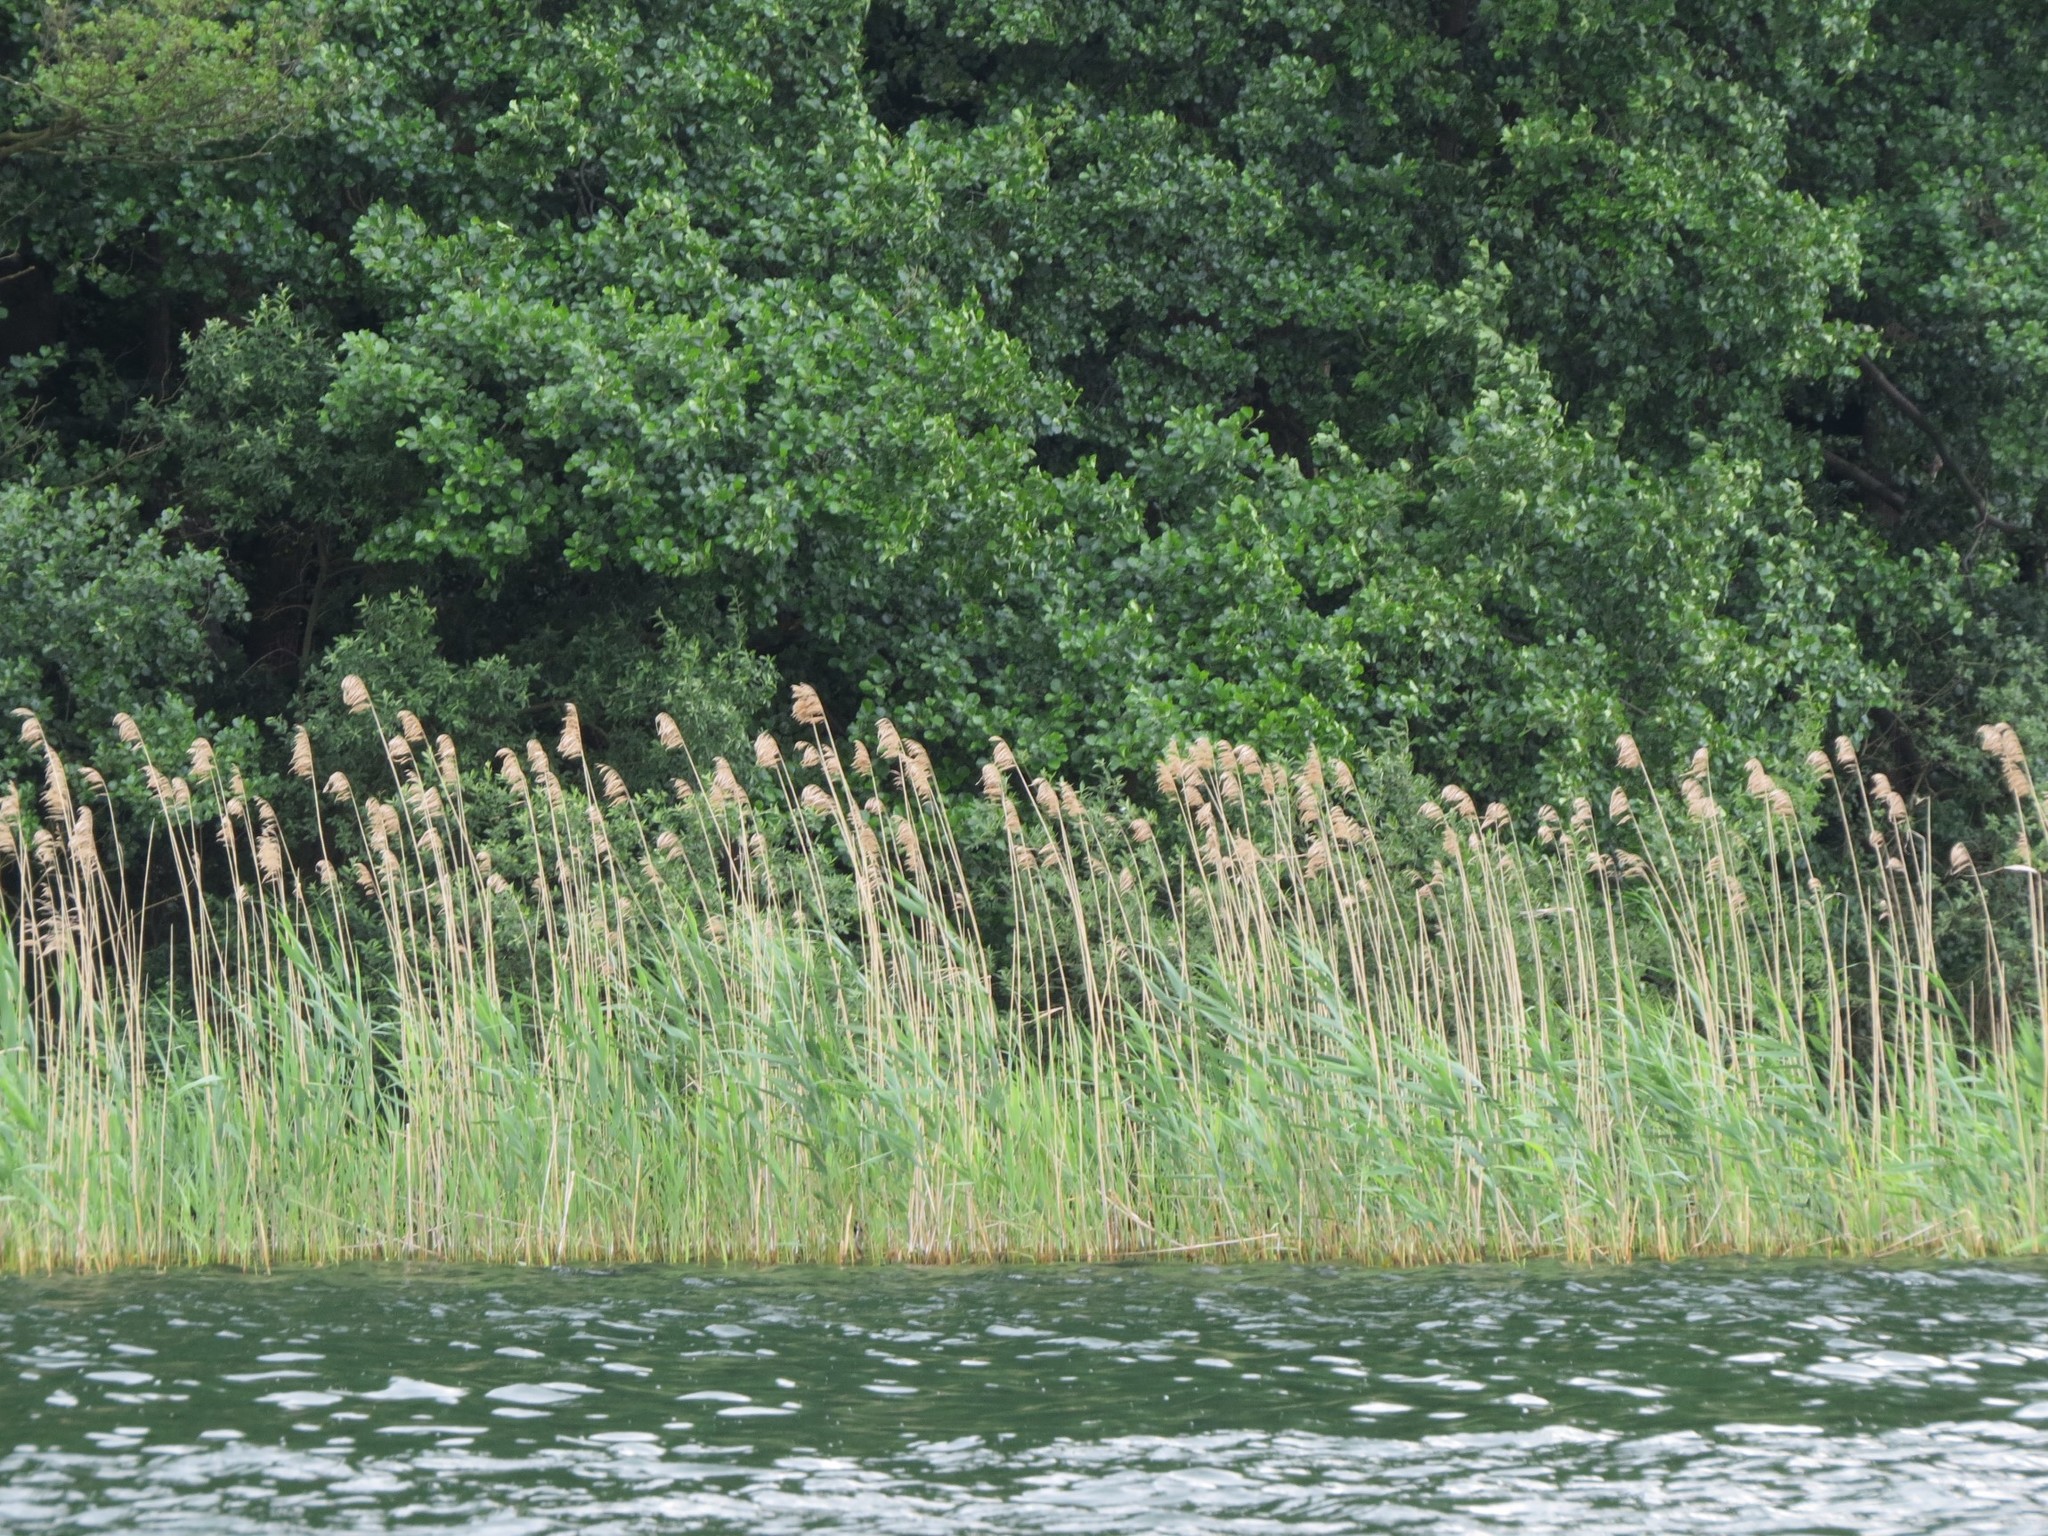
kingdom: Plantae
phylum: Tracheophyta
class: Liliopsida
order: Poales
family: Poaceae
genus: Phragmites
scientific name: Phragmites australis
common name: Common reed
